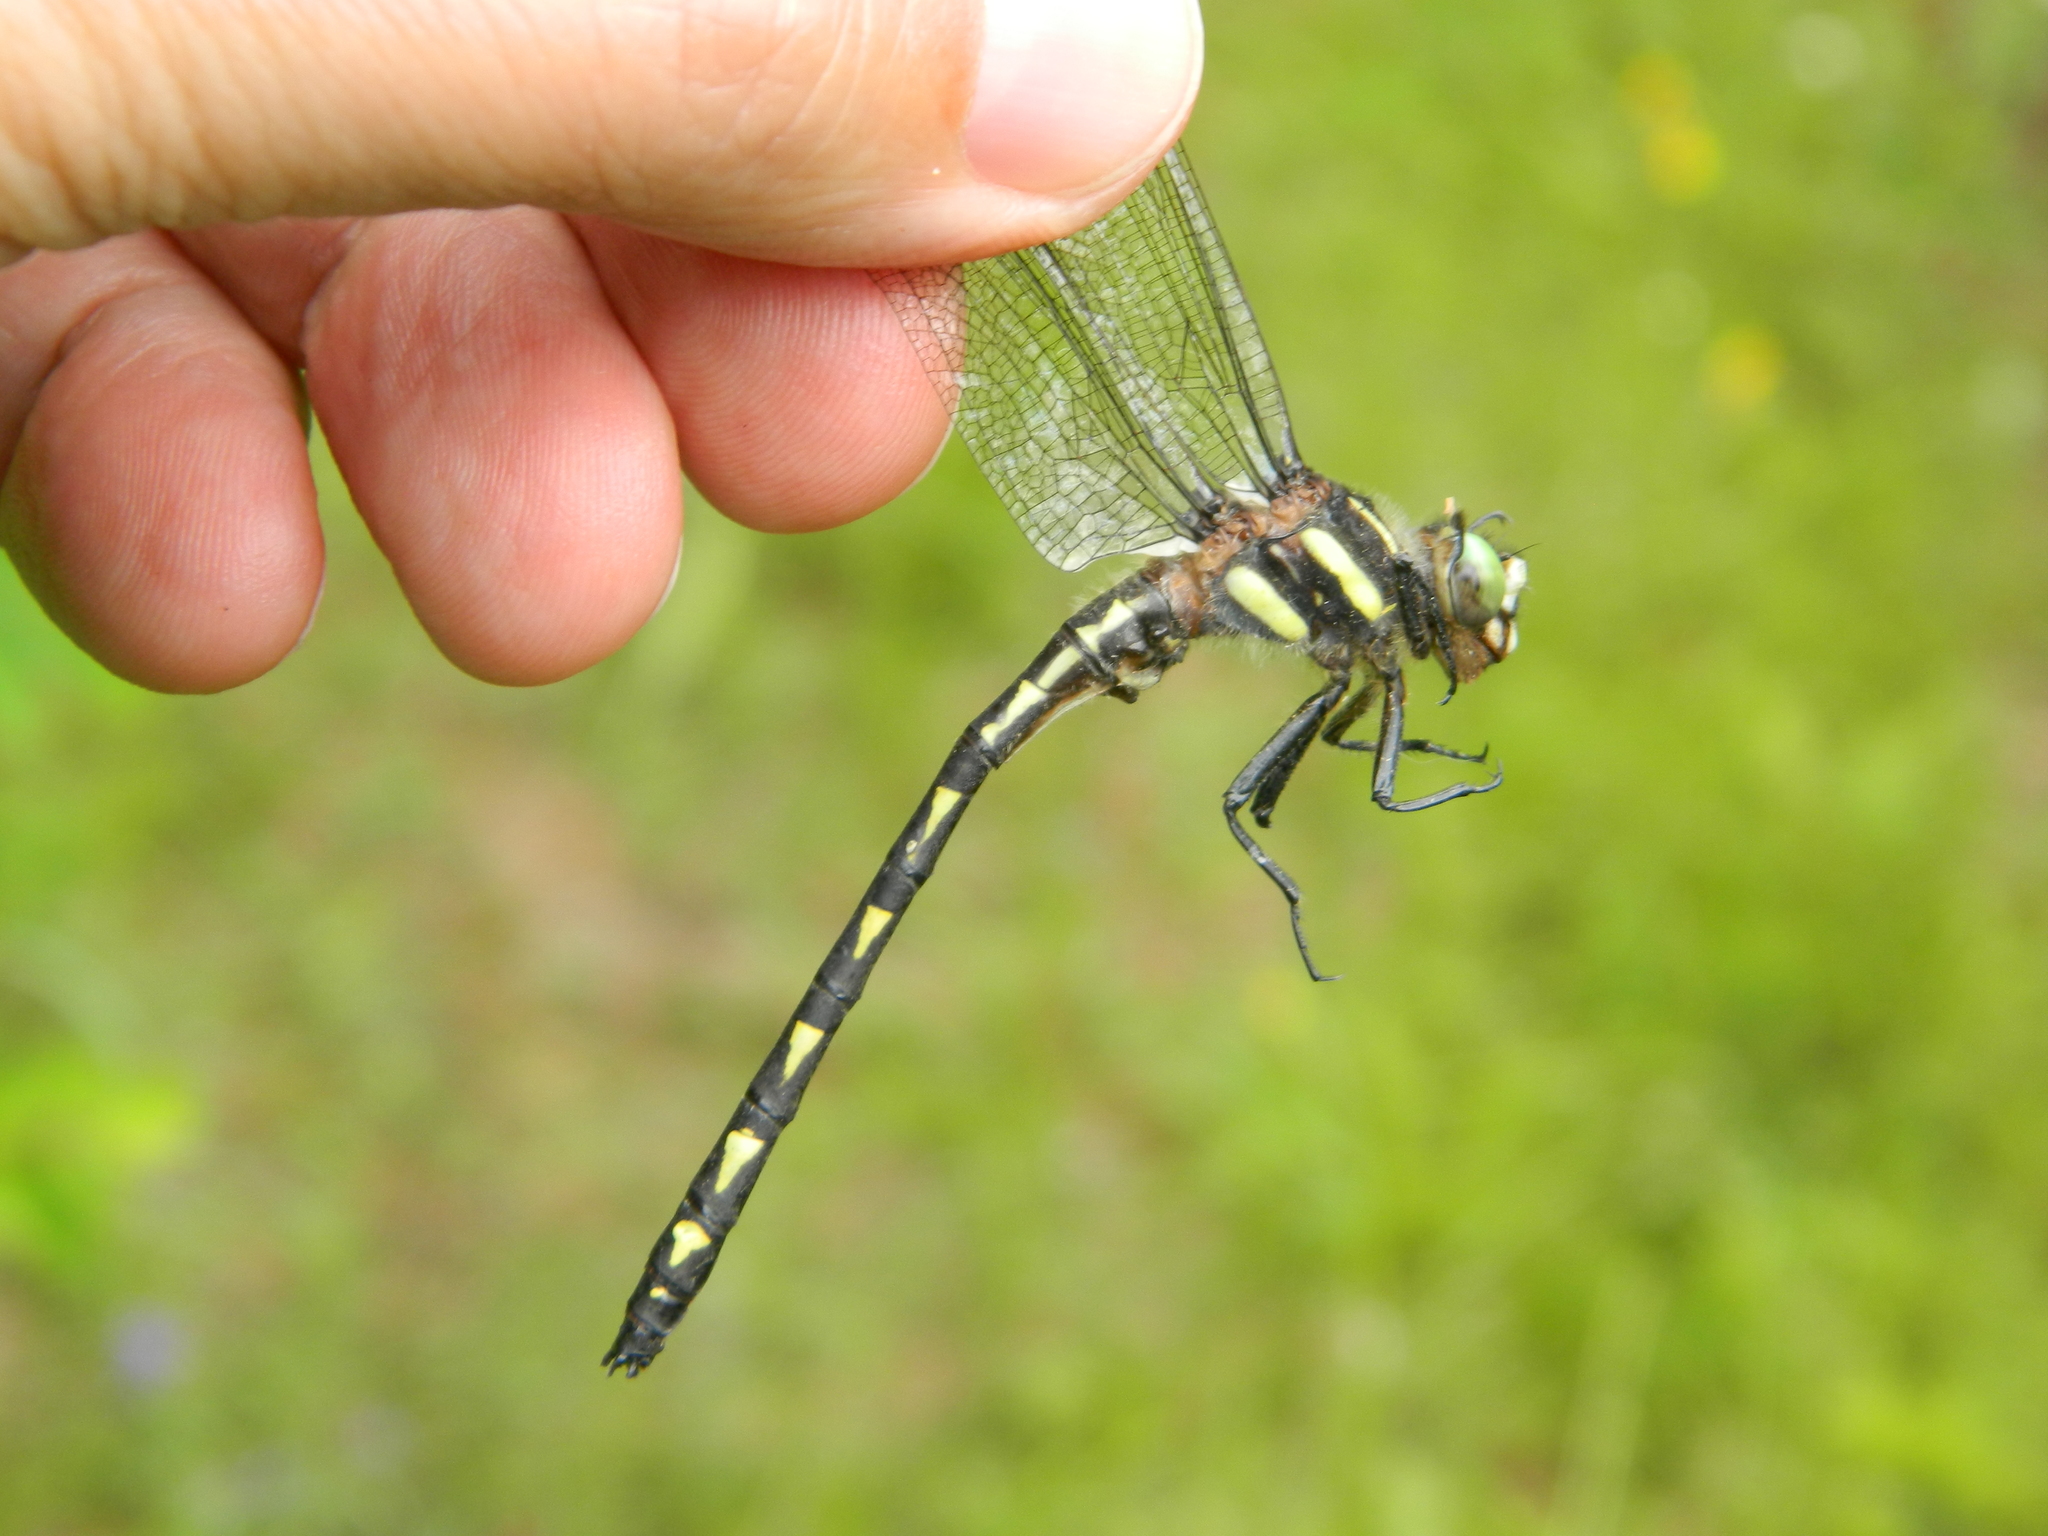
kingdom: Animalia
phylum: Arthropoda
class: Insecta
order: Odonata
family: Cordulegastridae
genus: Cordulegaster
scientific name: Cordulegaster diastatops
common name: Delta-spotted spiketail
